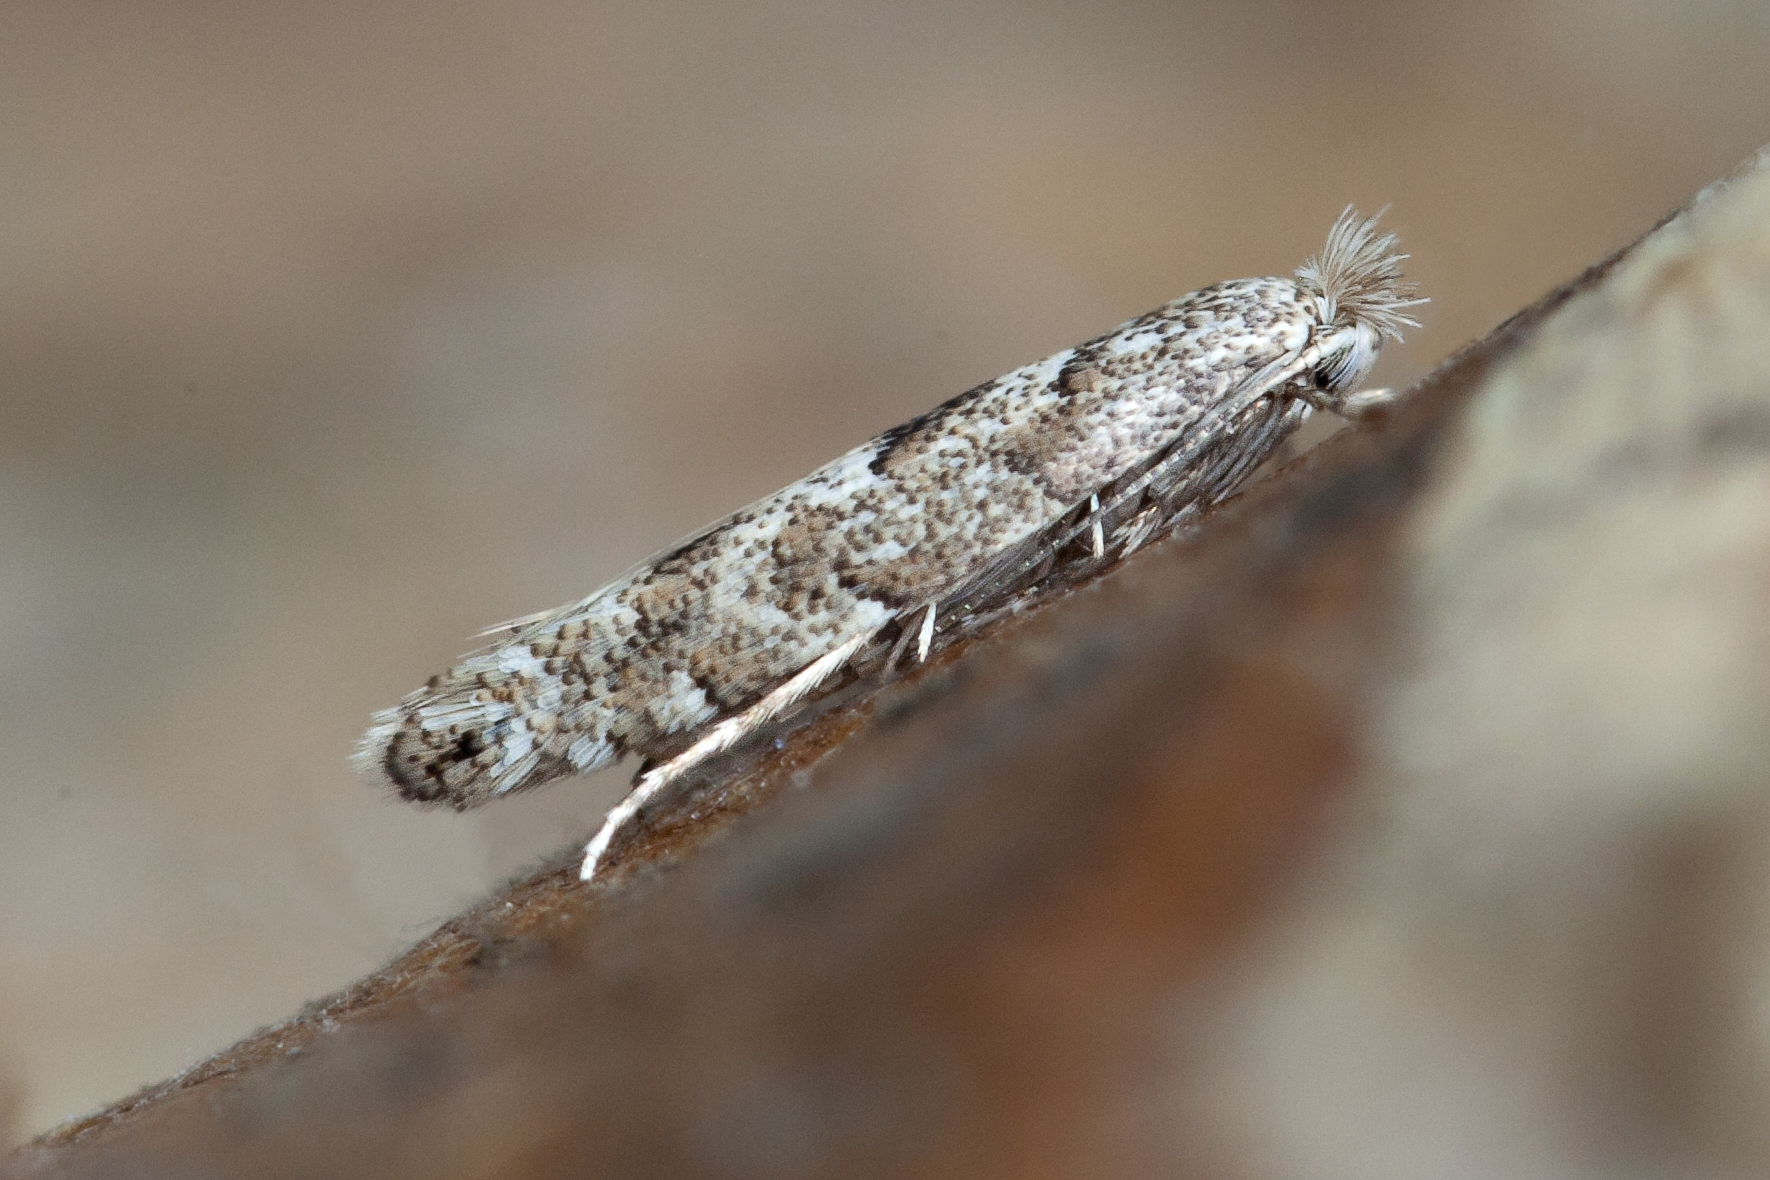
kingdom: Animalia
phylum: Arthropoda
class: Insecta
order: Lepidoptera
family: Gracillariidae
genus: Phyllonorycter
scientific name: Phyllonorycter pastorella
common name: Royal midget
